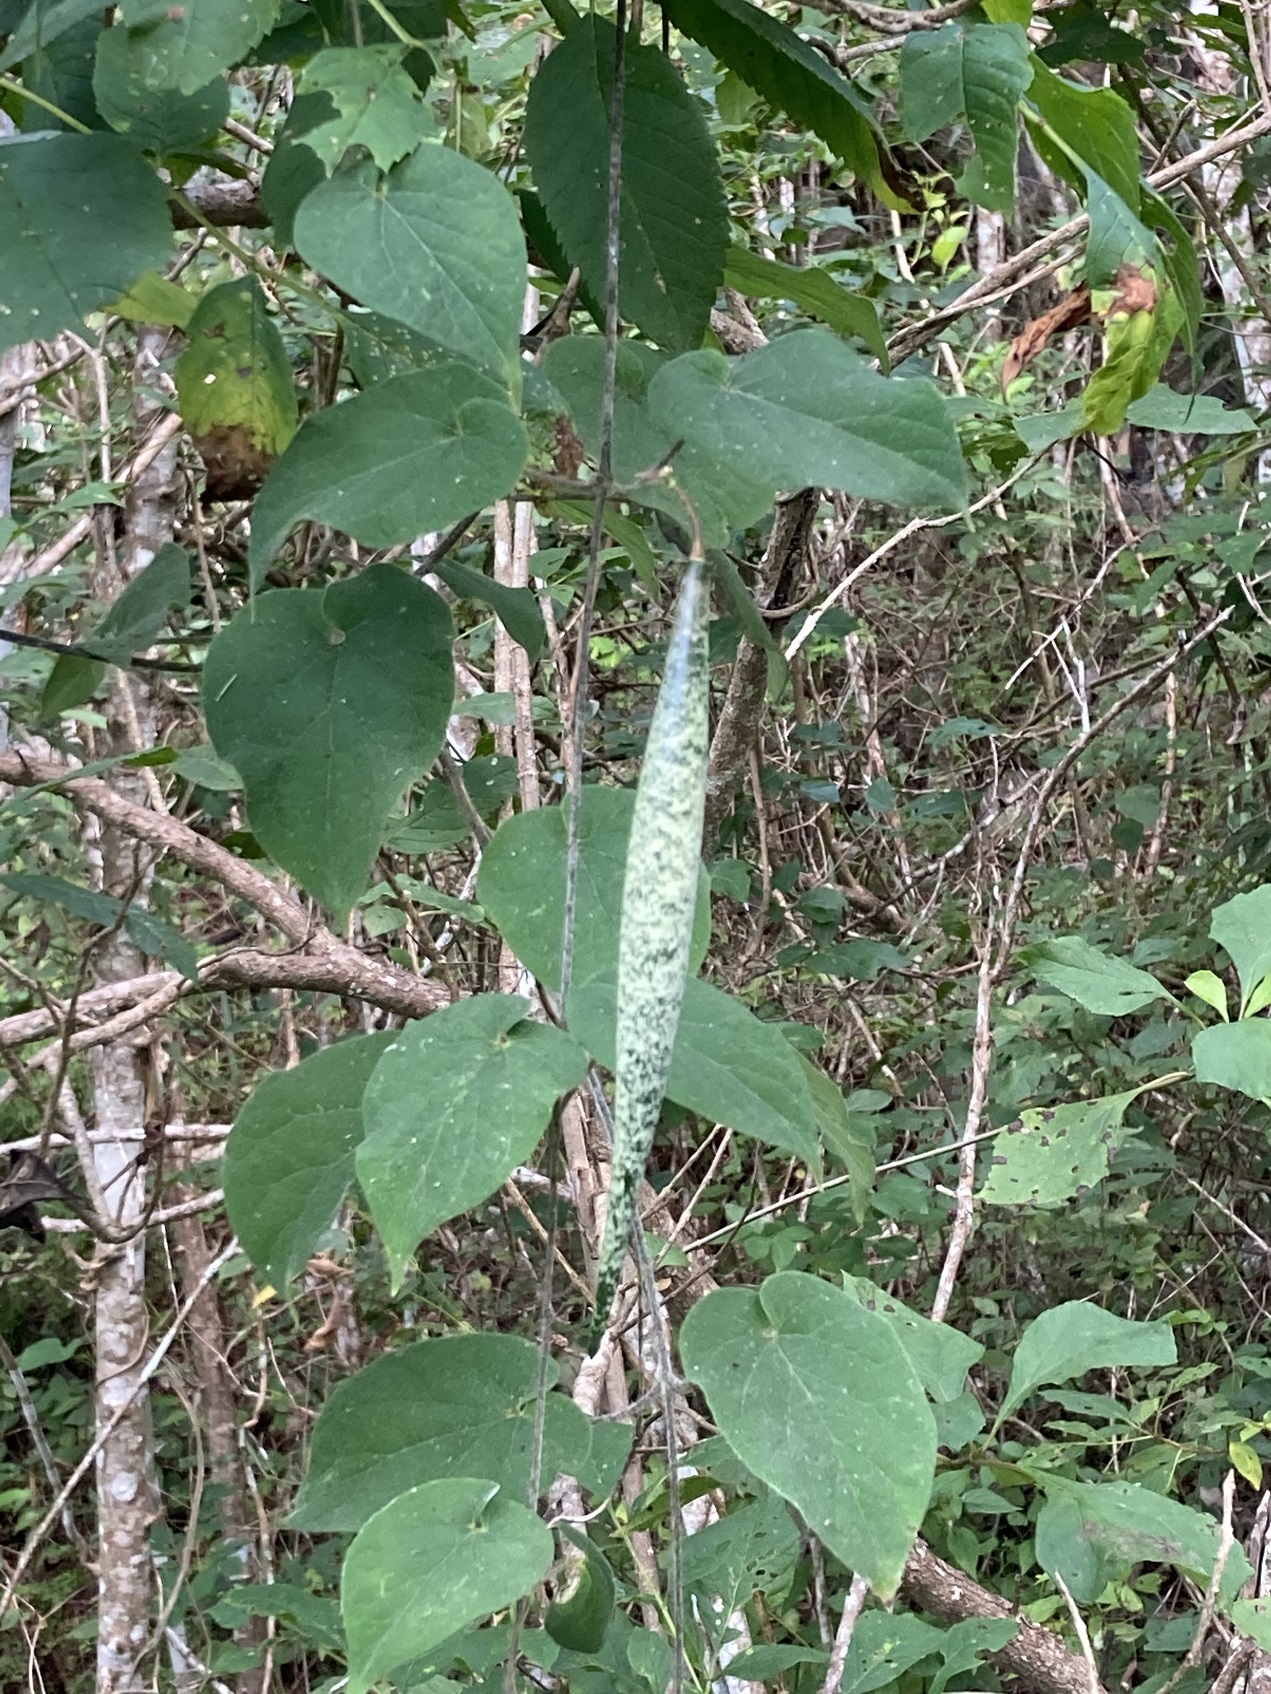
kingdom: Plantae
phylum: Tracheophyta
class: Magnoliopsida
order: Gentianales
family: Apocynaceae
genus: Polystemma
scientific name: Polystemma guatemalense
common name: Arborescente rattan
